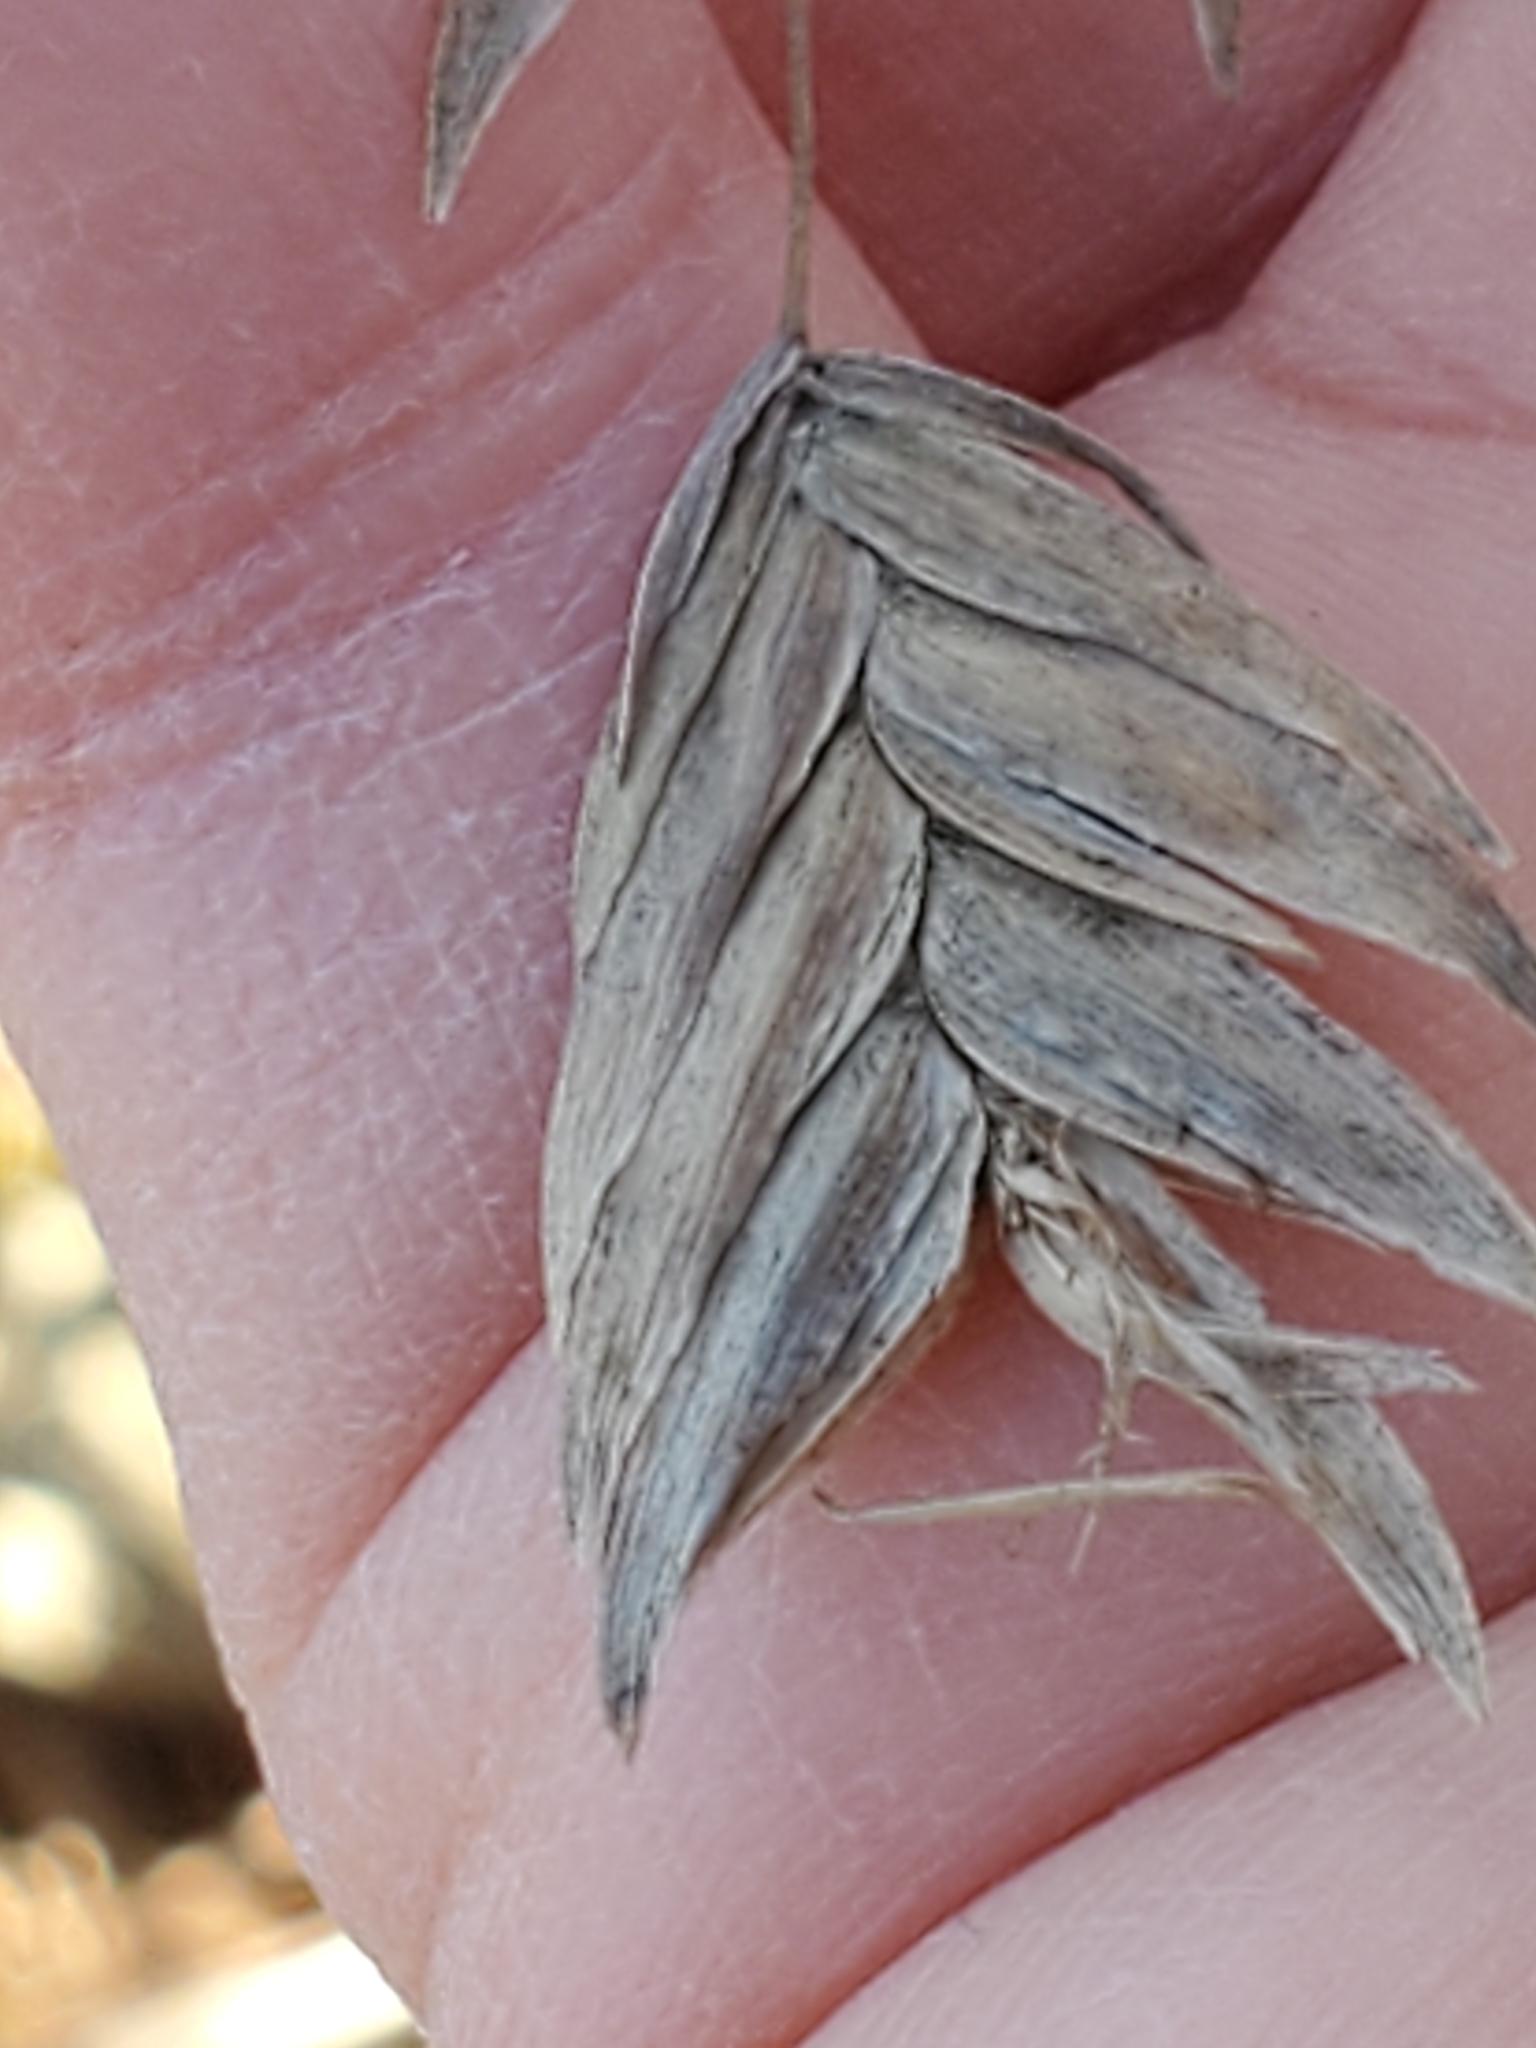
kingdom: Plantae
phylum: Tracheophyta
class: Liliopsida
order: Poales
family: Poaceae
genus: Chasmanthium
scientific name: Chasmanthium latifolium
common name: Broad-leaved chasmanthium
